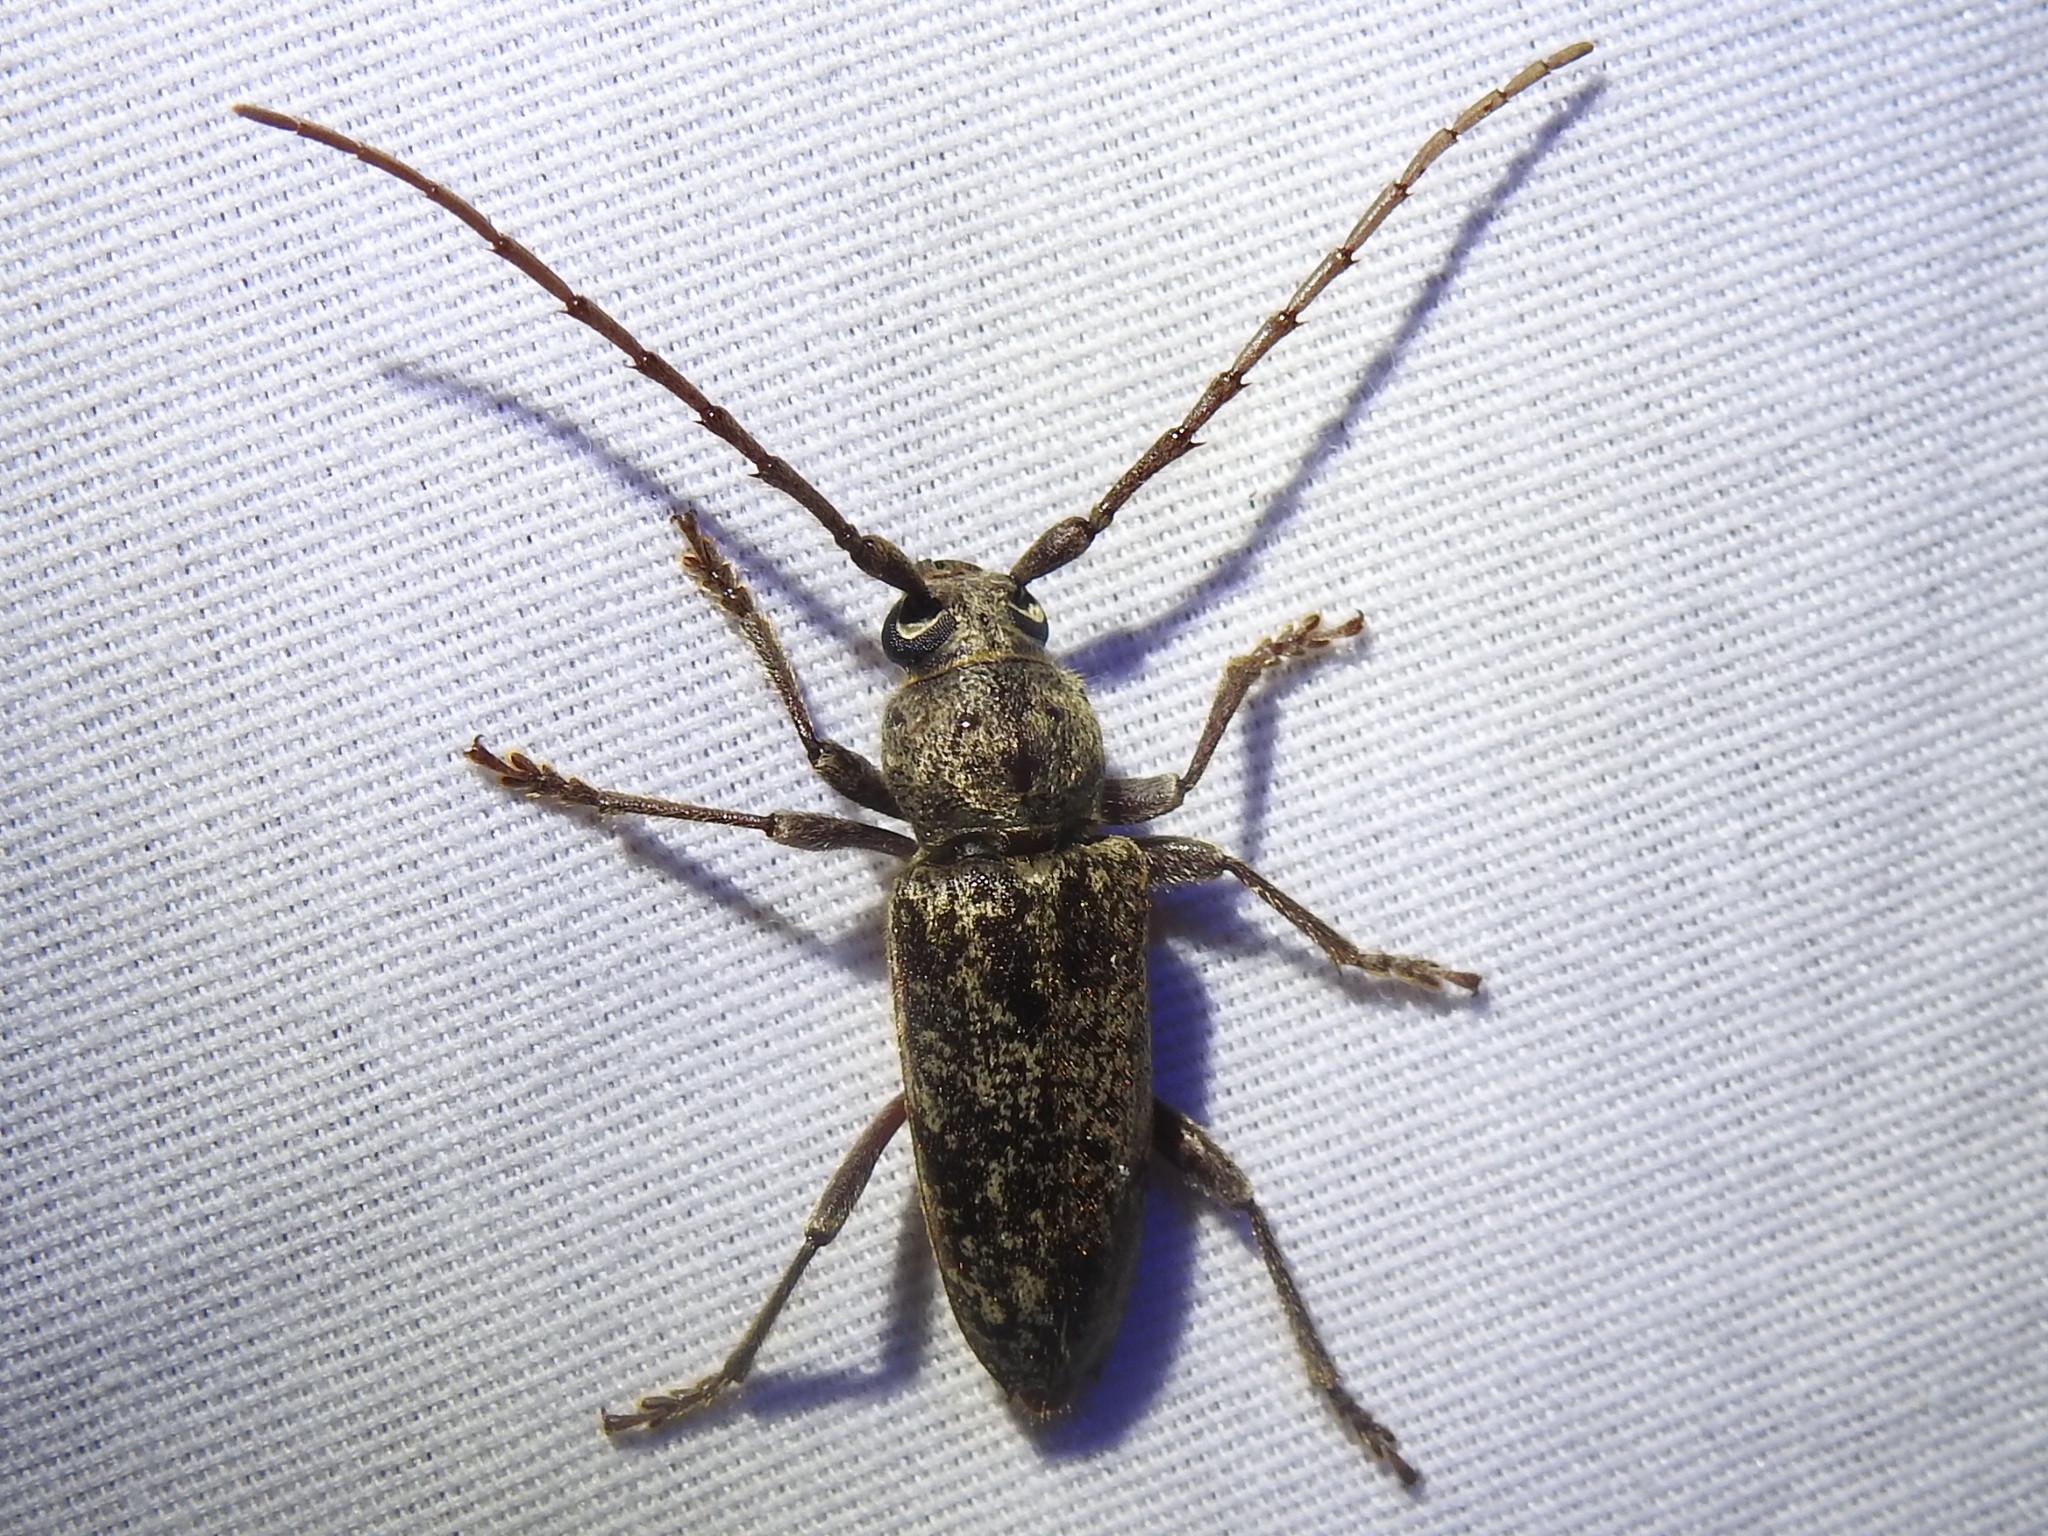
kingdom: Animalia
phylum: Arthropoda
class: Insecta
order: Coleoptera
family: Cerambycidae
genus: Enaphalodes
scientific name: Enaphalodes atomarius
